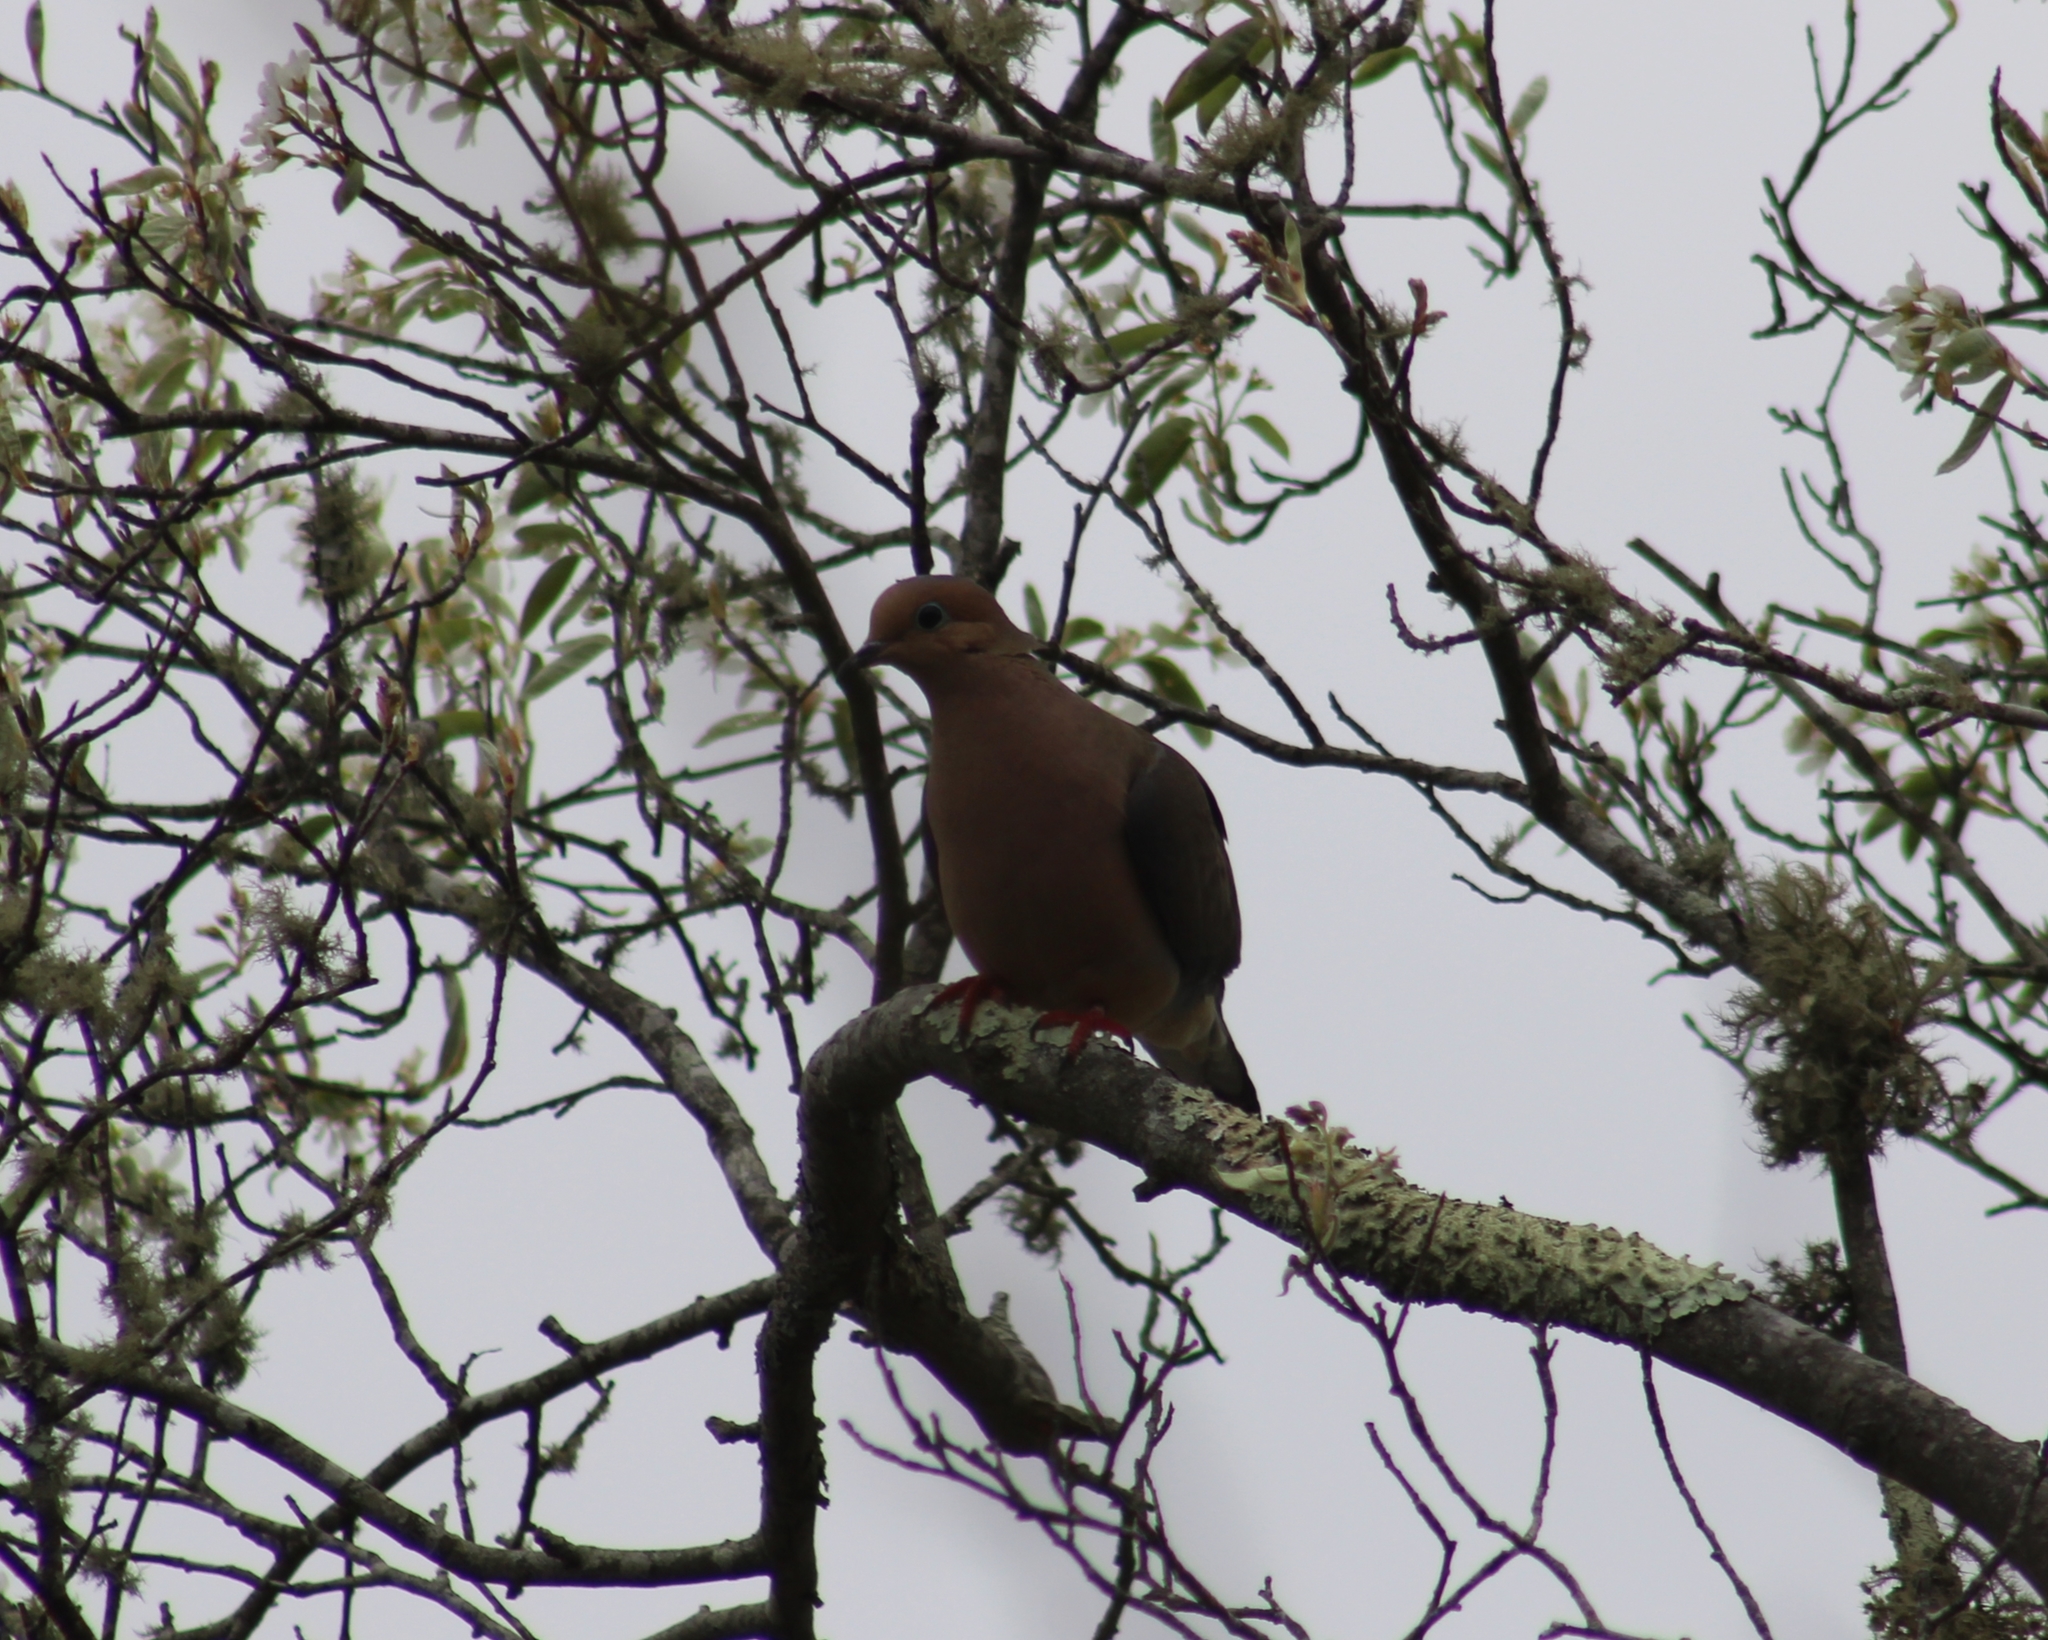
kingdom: Animalia
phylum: Chordata
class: Aves
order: Columbiformes
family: Columbidae
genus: Zenaida
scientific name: Zenaida macroura
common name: Mourning dove
